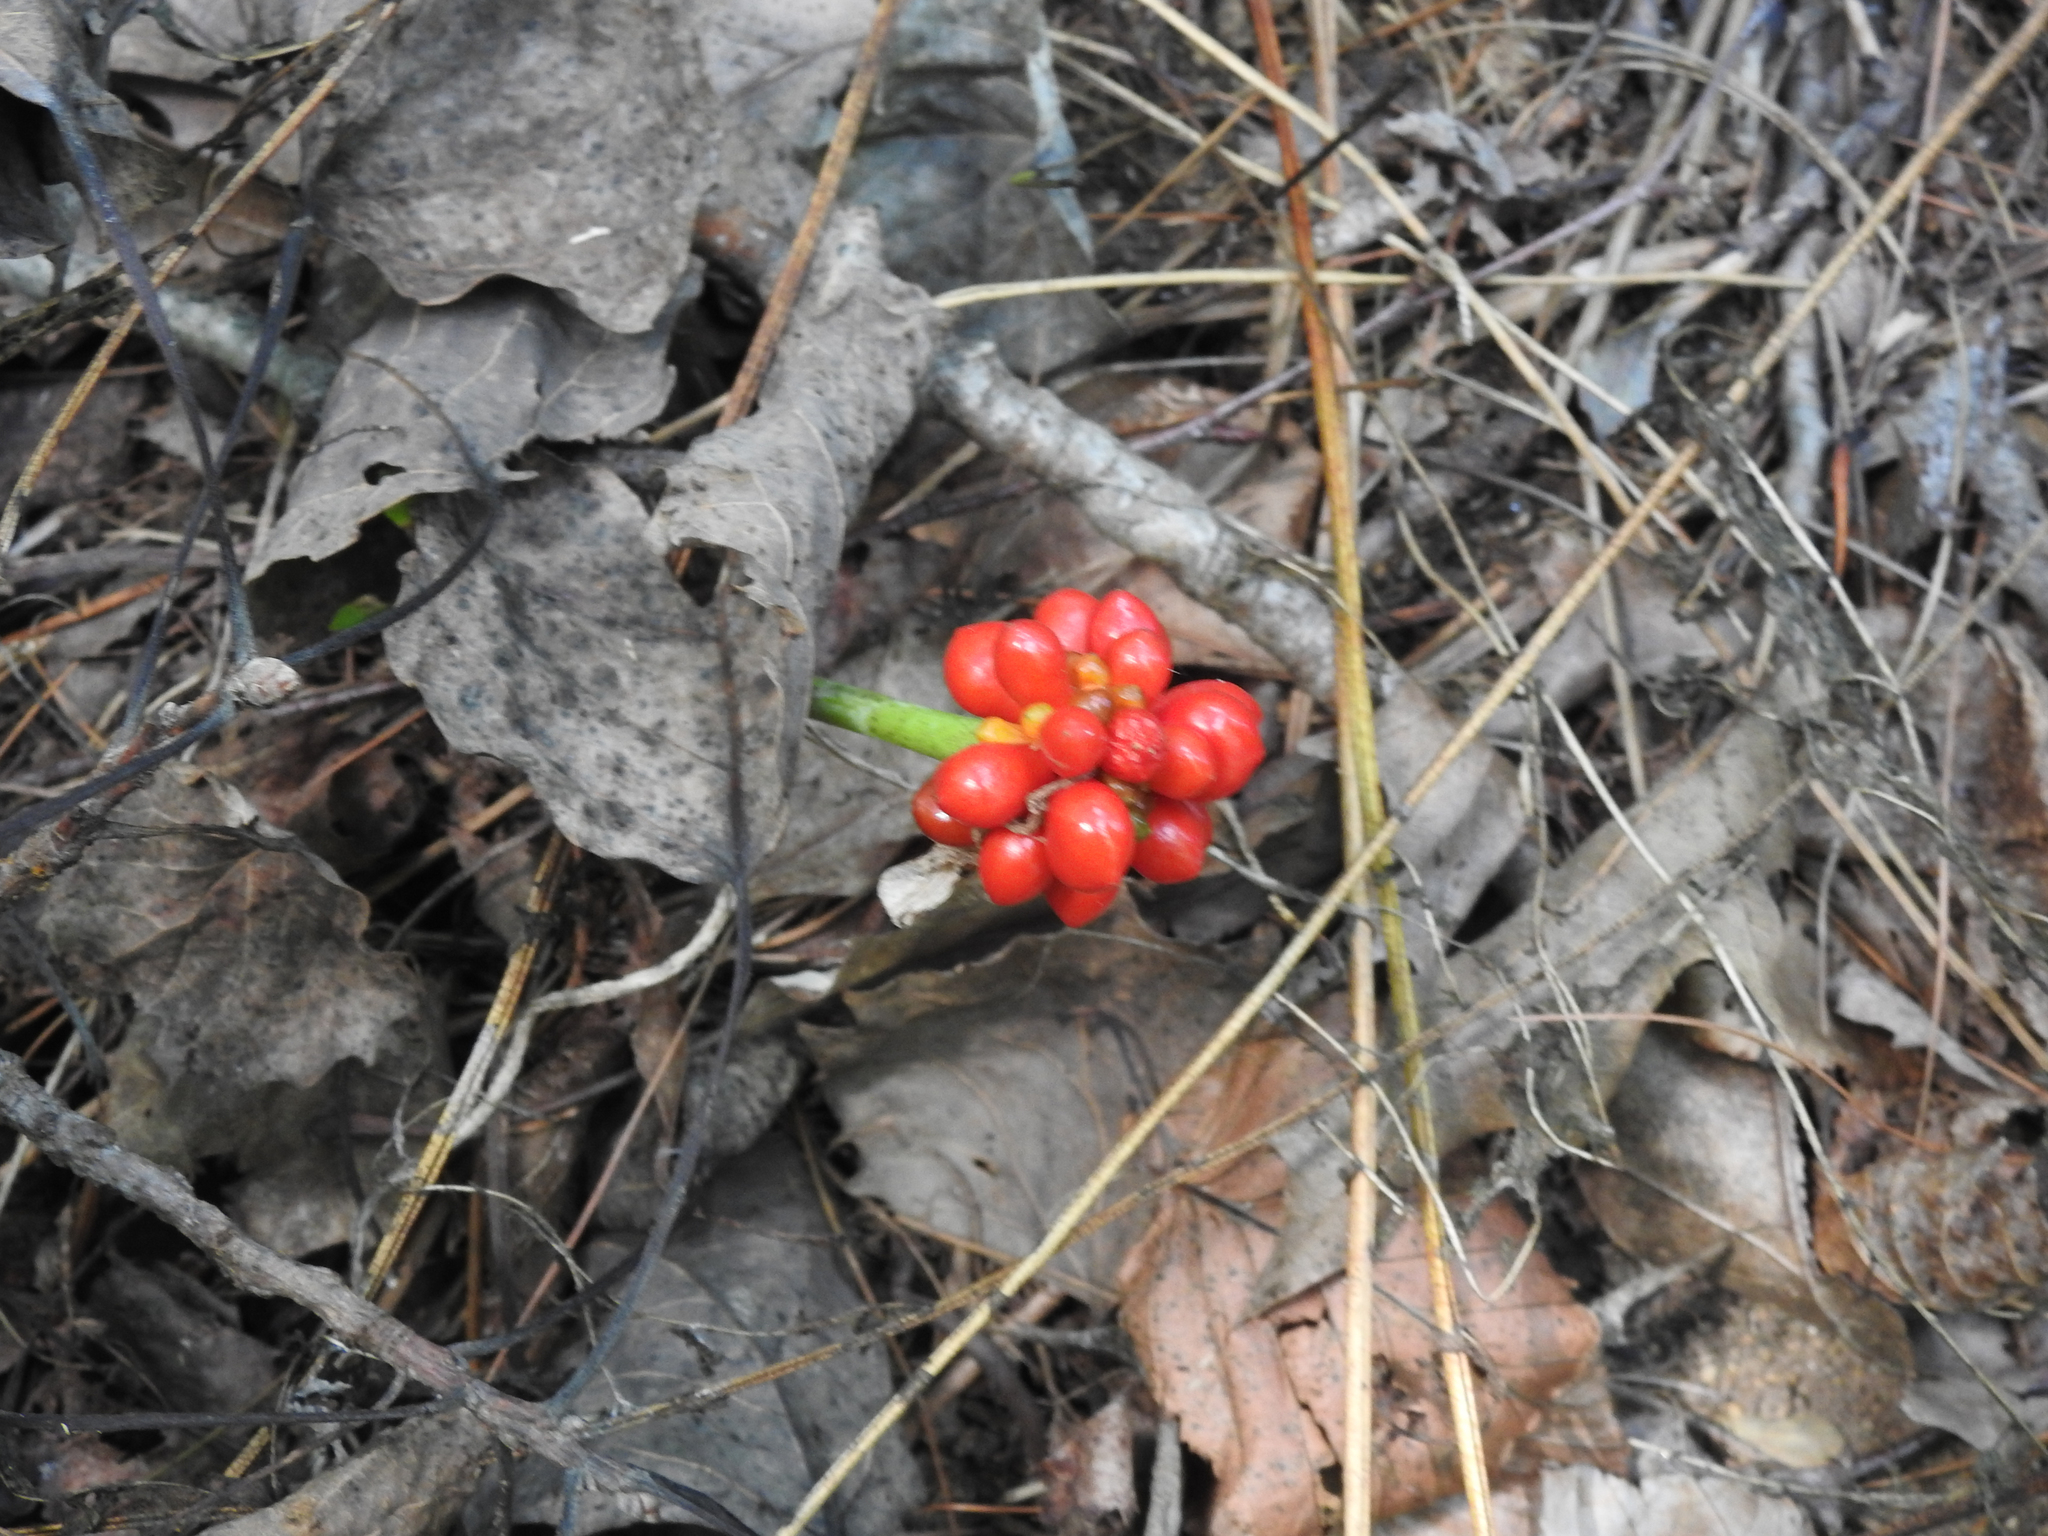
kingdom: Plantae
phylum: Tracheophyta
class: Liliopsida
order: Alismatales
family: Araceae
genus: Arisaema
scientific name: Arisaema triphyllum
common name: Jack-in-the-pulpit
